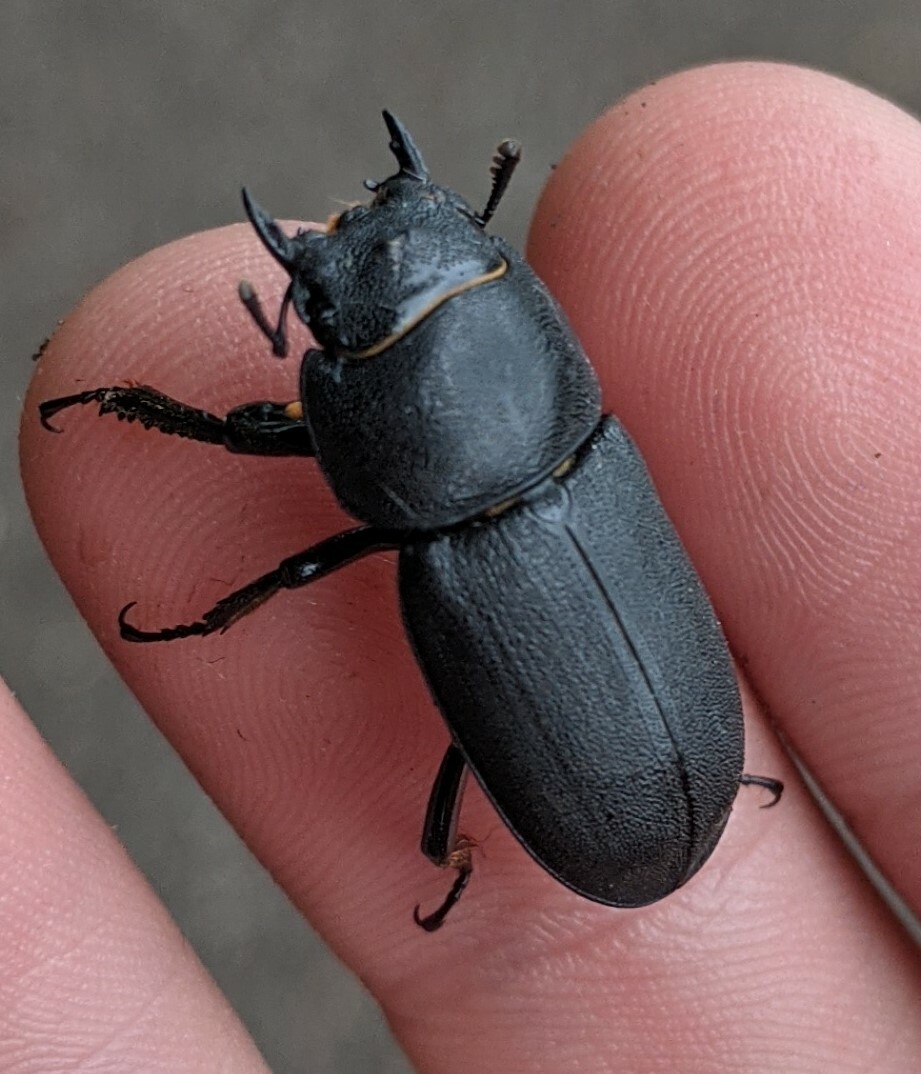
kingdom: Animalia
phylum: Arthropoda
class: Insecta
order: Coleoptera
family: Lucanidae
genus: Dorcus
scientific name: Dorcus parallelipipedus
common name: Lesser stag beetle
